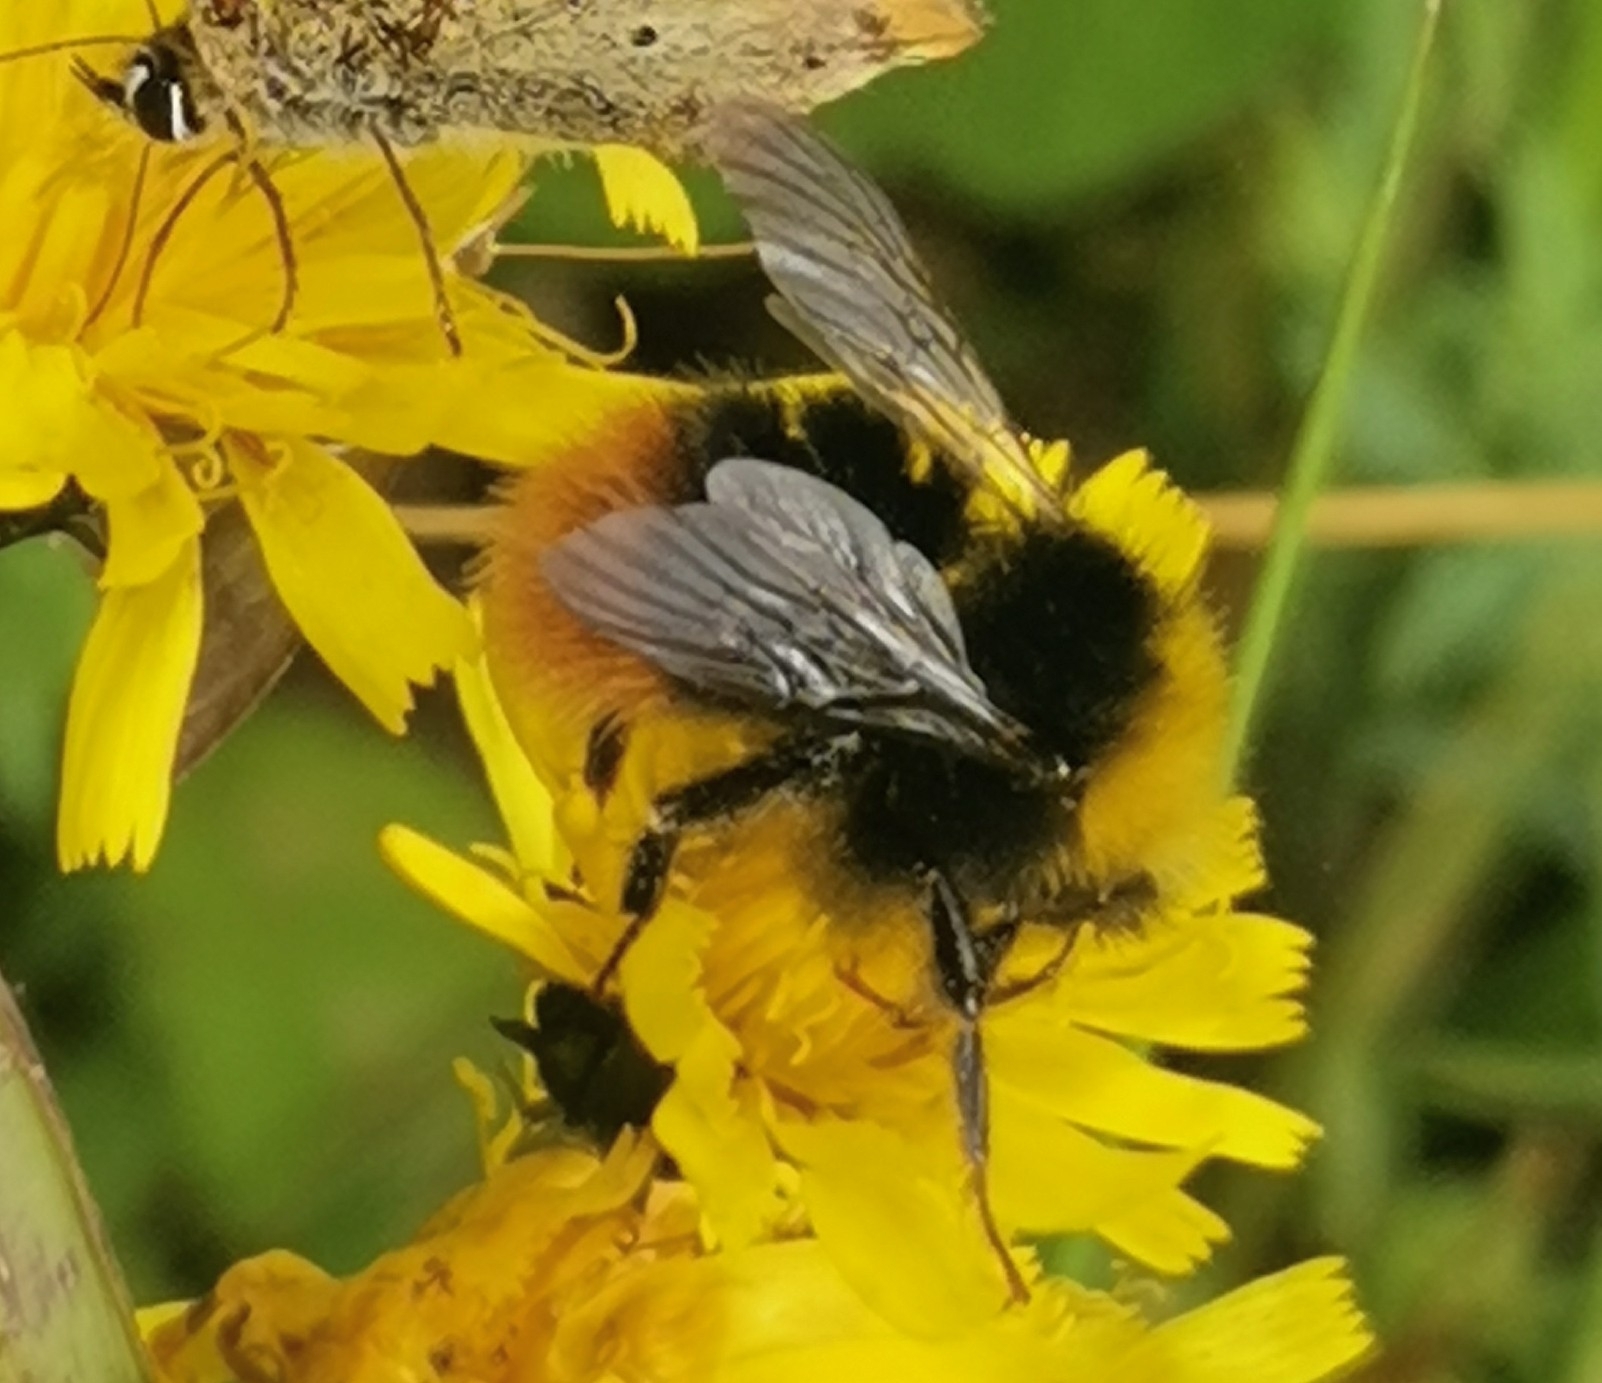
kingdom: Animalia
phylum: Arthropoda
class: Insecta
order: Hymenoptera
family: Apidae
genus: Bombus
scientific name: Bombus pratorum
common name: Early humble-bee
